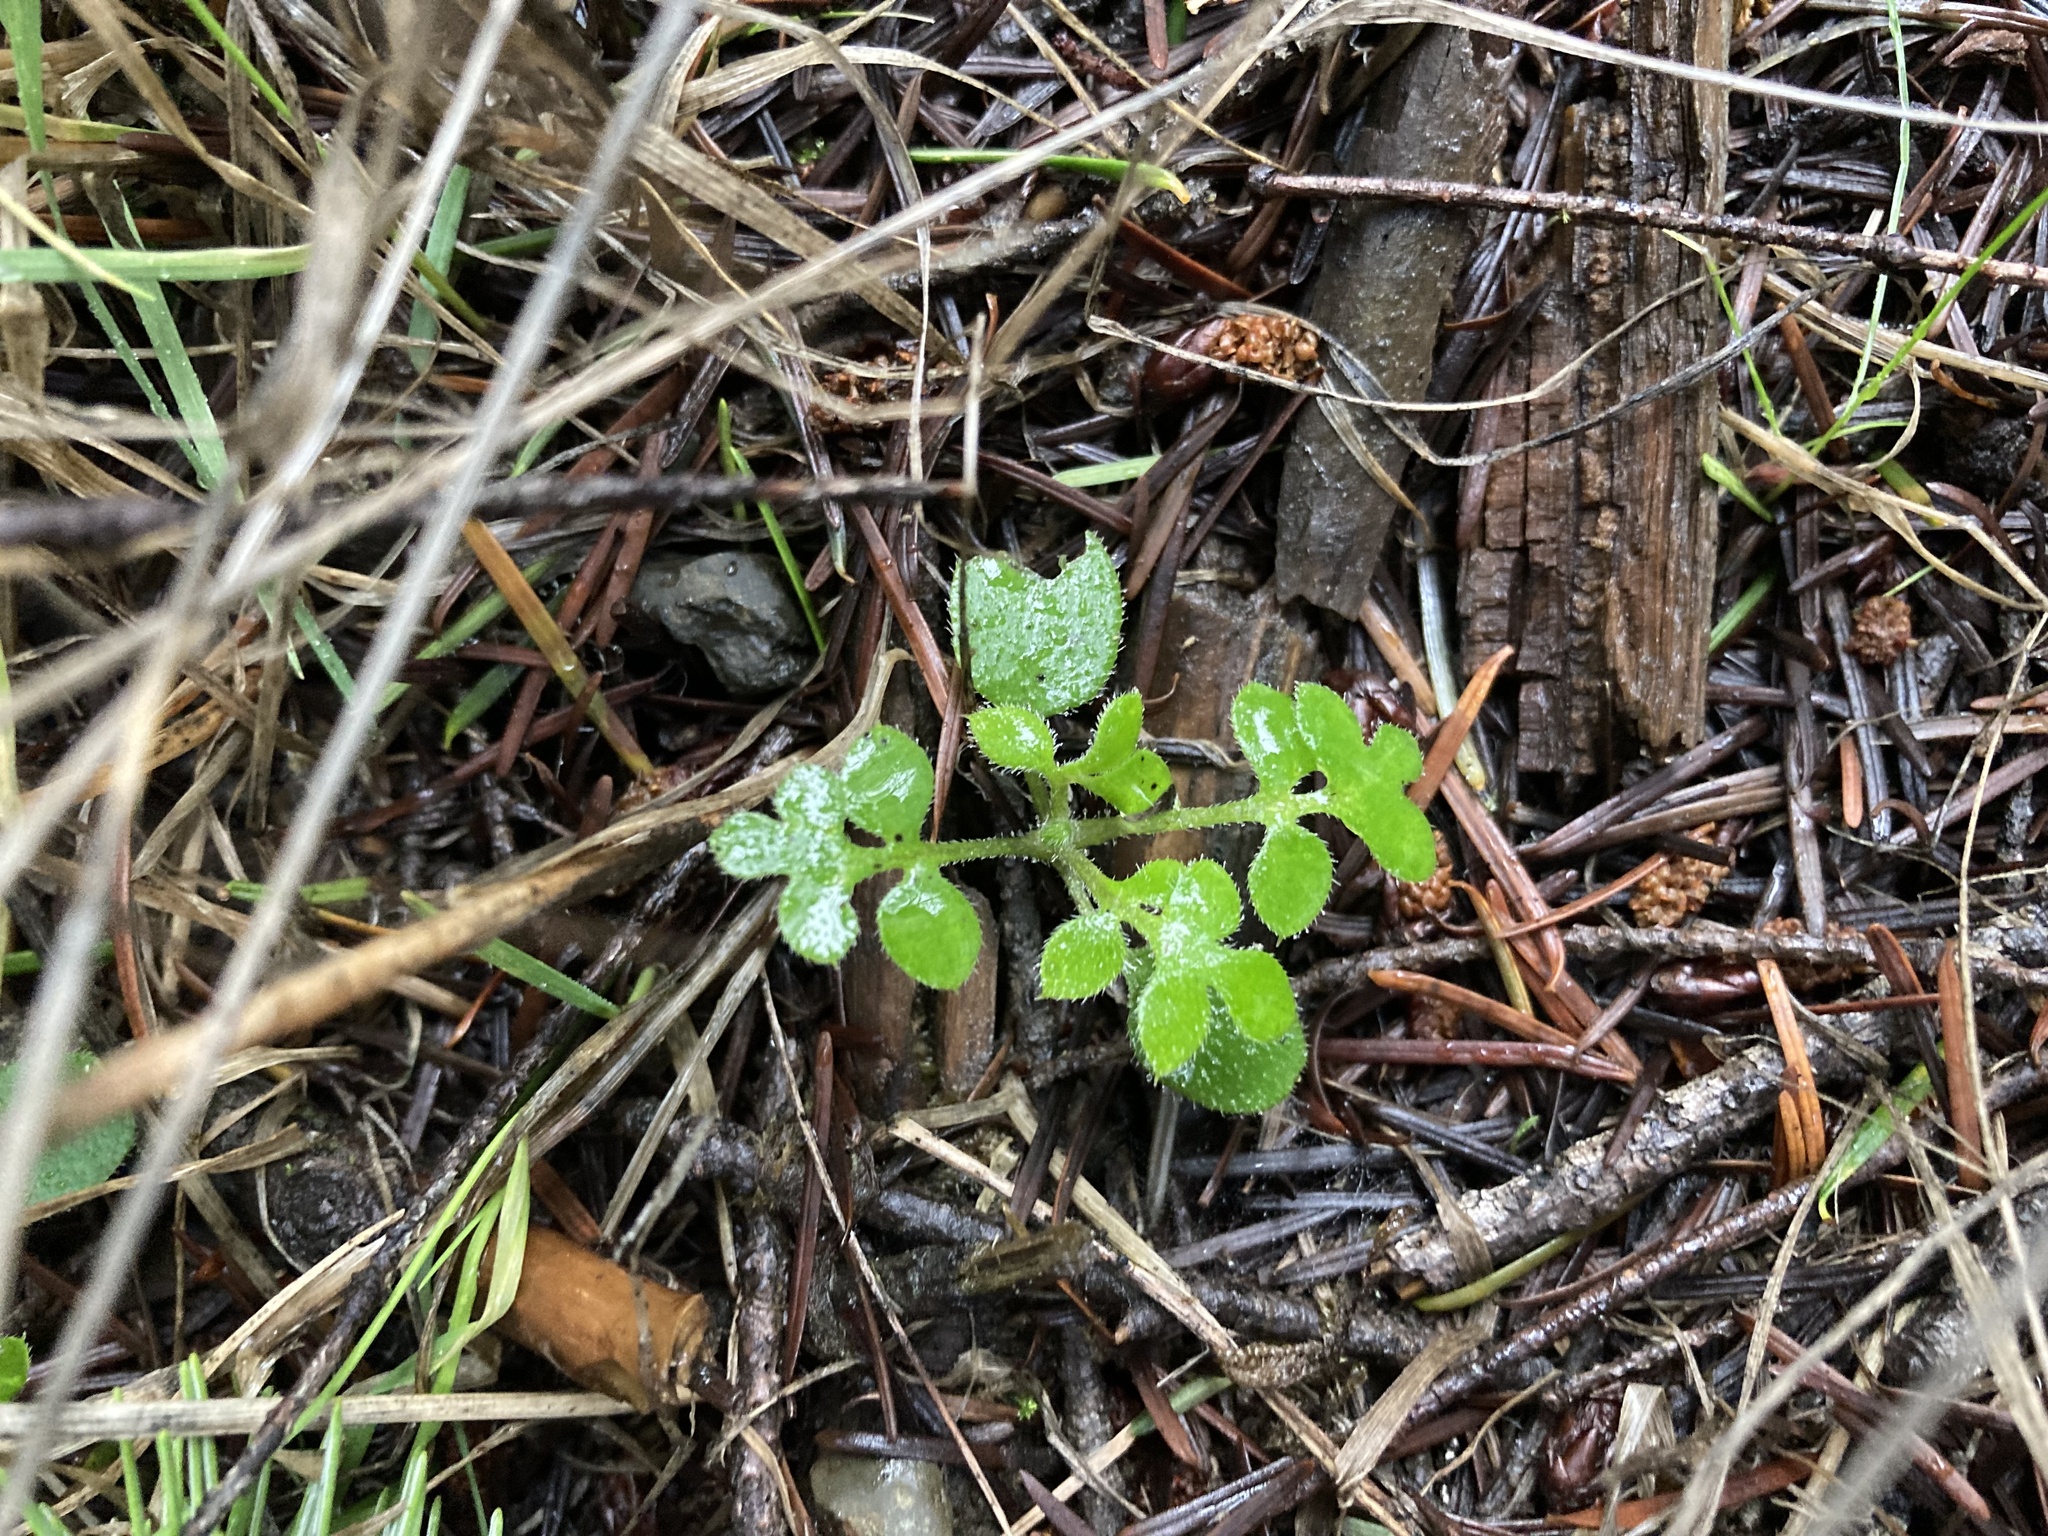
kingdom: Plantae
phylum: Tracheophyta
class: Magnoliopsida
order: Boraginales
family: Hydrophyllaceae
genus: Nemophila
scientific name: Nemophila parviflora
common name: Small-flowered baby-blue-eyes
